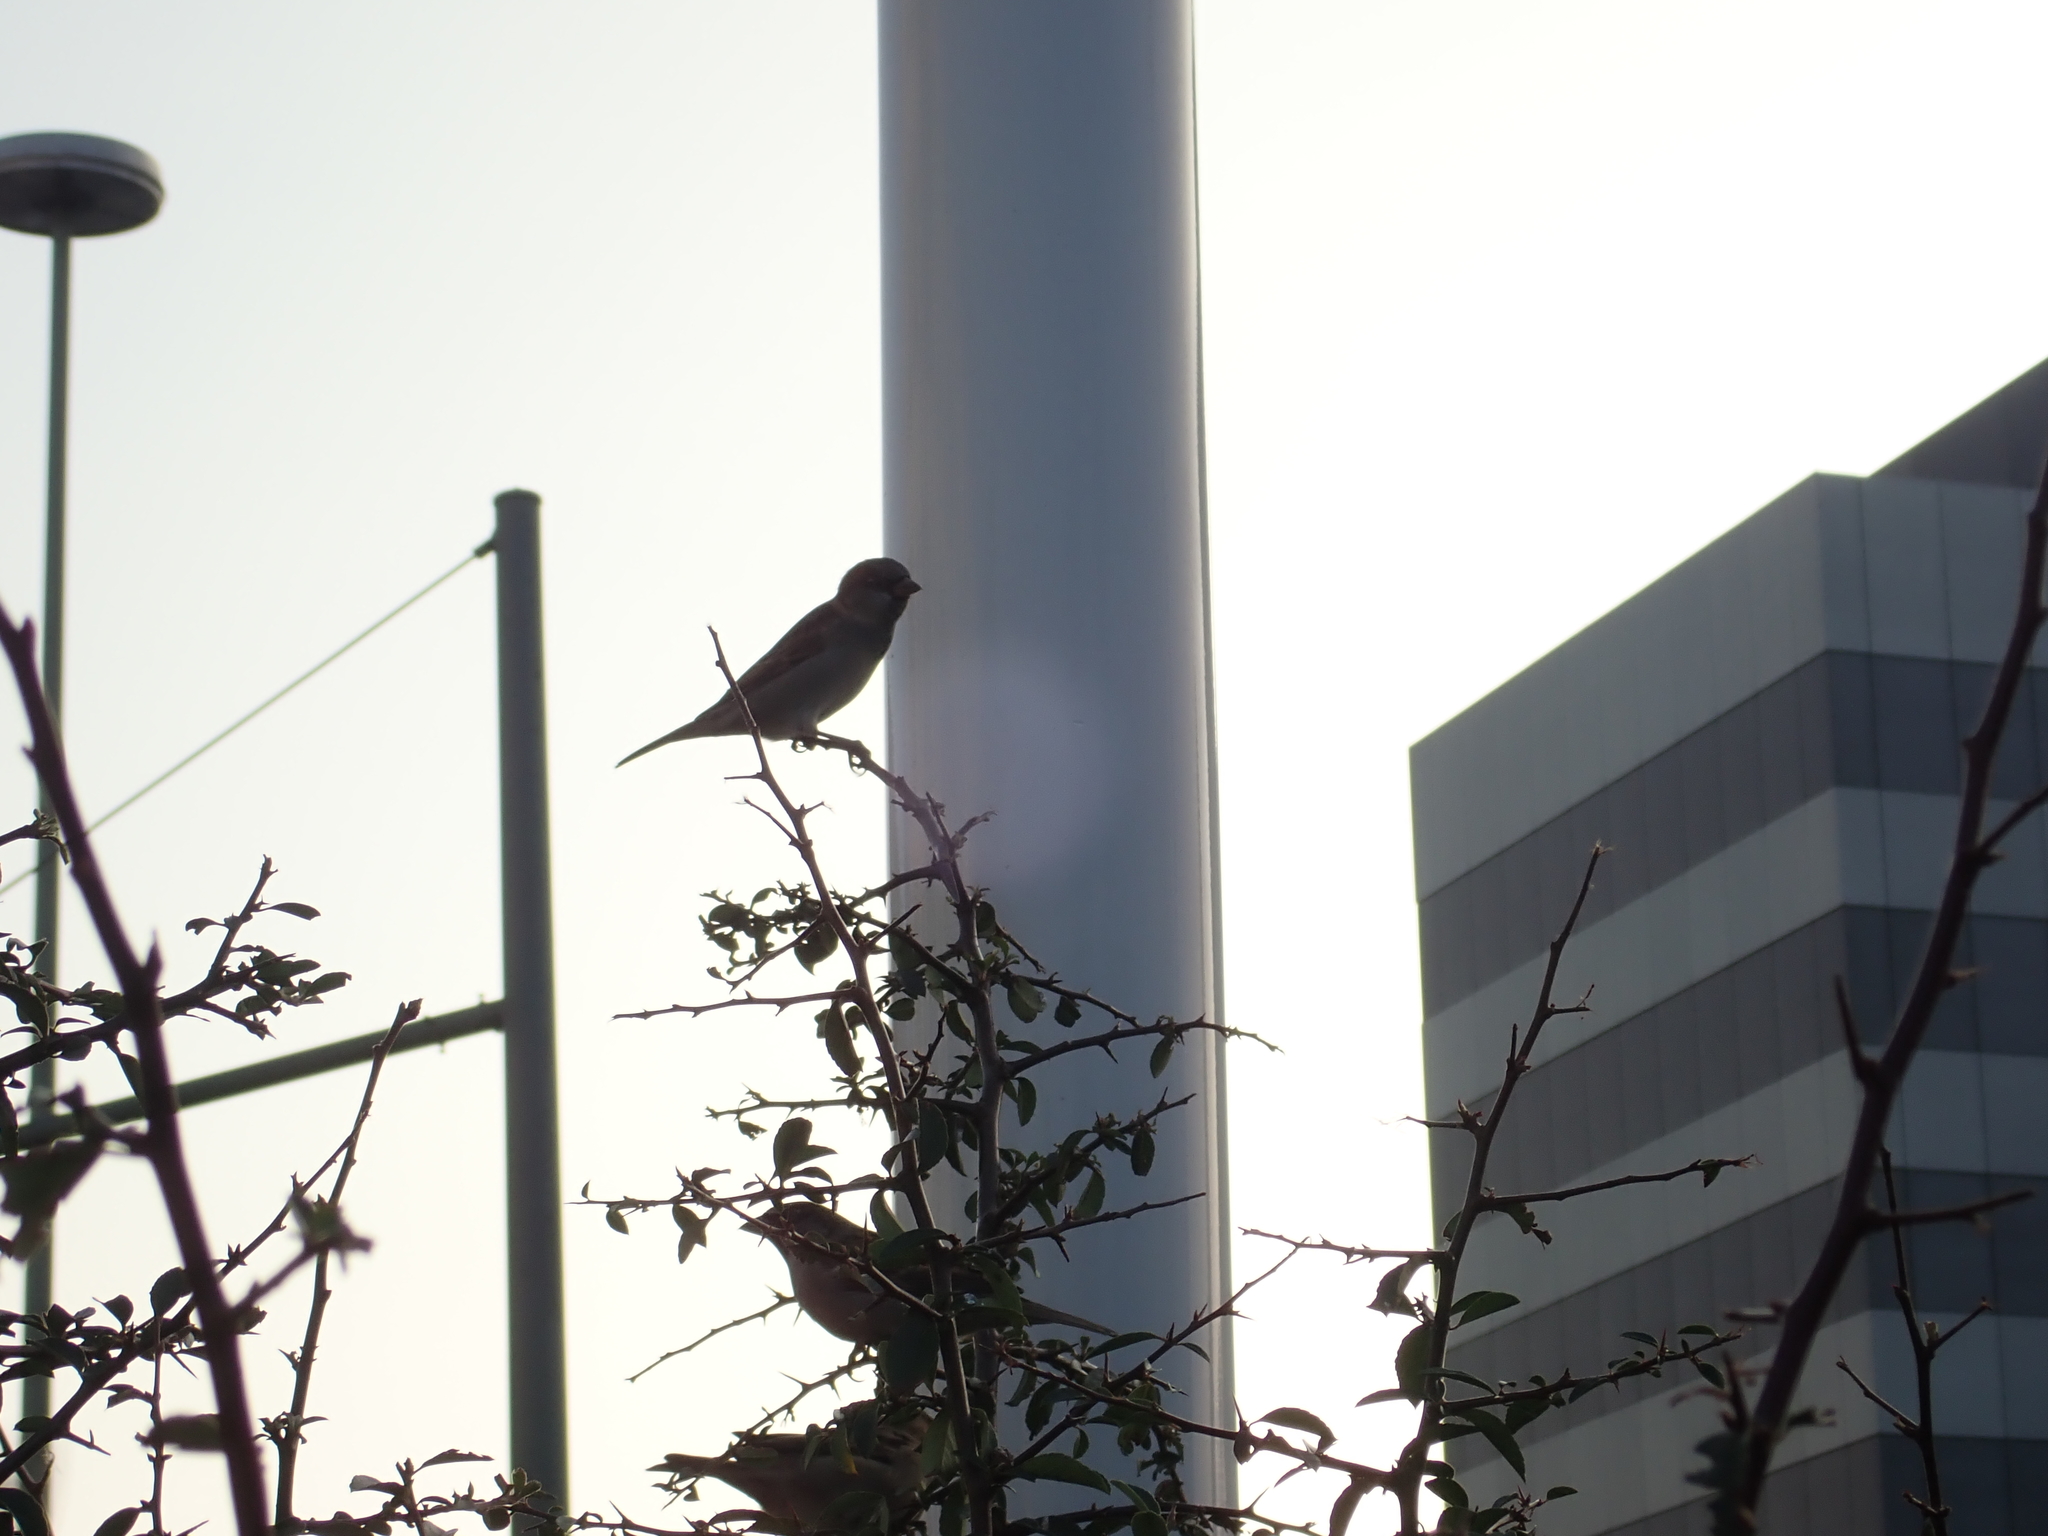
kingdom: Animalia
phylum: Chordata
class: Aves
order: Passeriformes
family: Passeridae
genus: Passer
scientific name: Passer domesticus
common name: House sparrow
